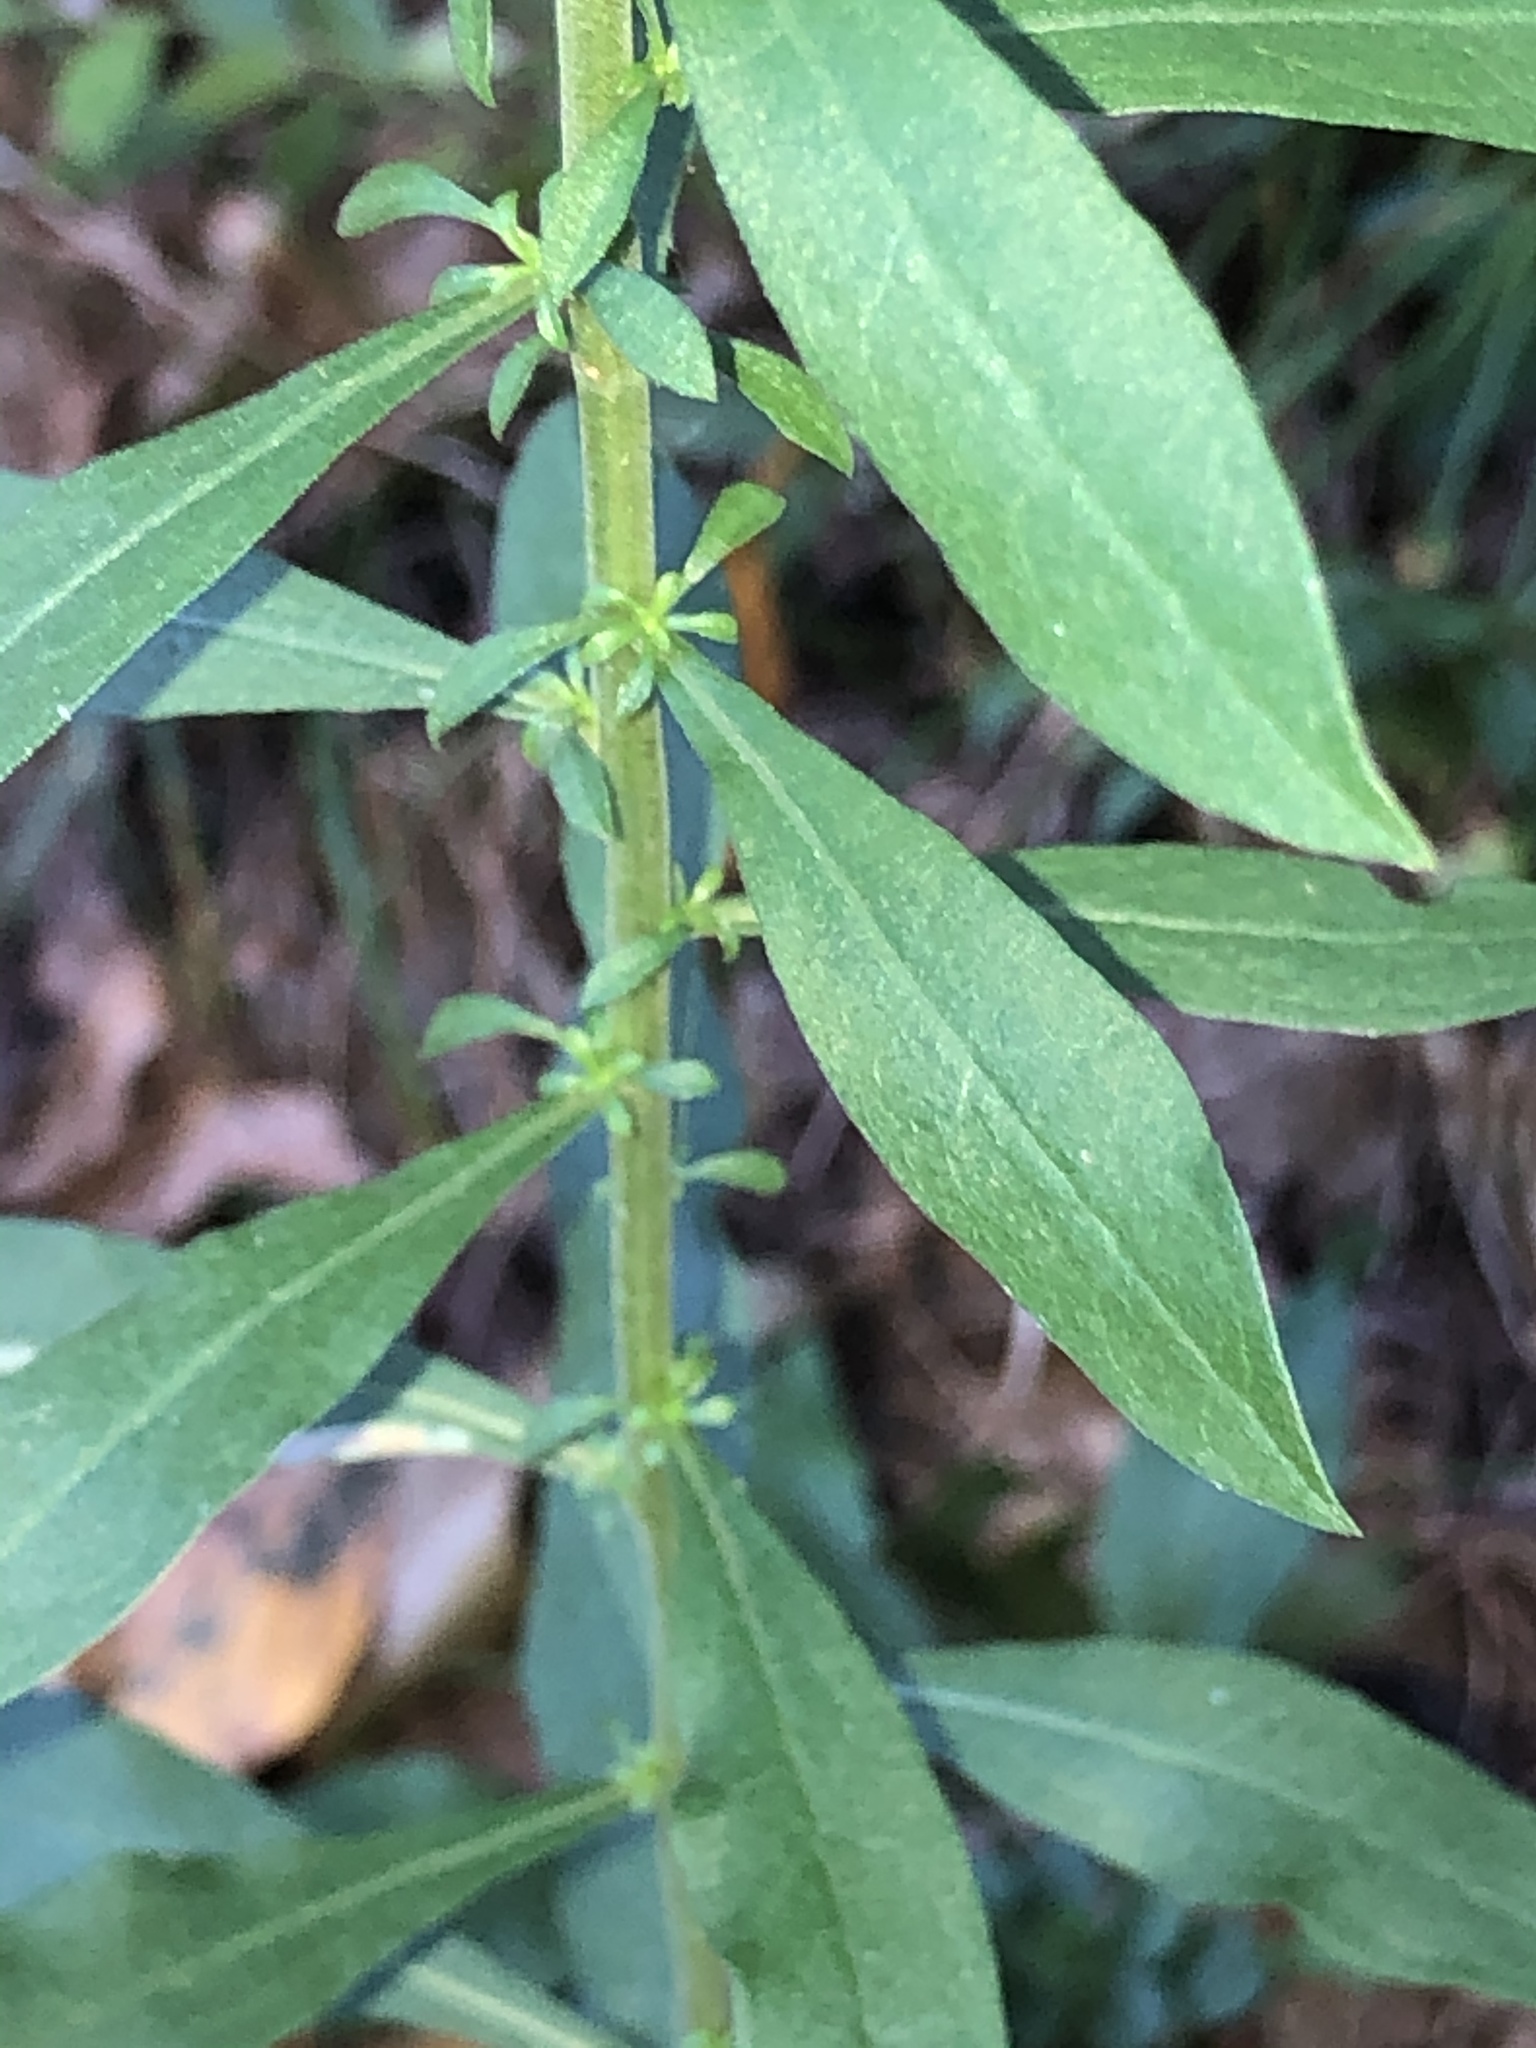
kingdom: Plantae
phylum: Tracheophyta
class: Magnoliopsida
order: Asterales
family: Asteraceae
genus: Solidago
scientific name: Solidago puberula
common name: Downy goldenrod
